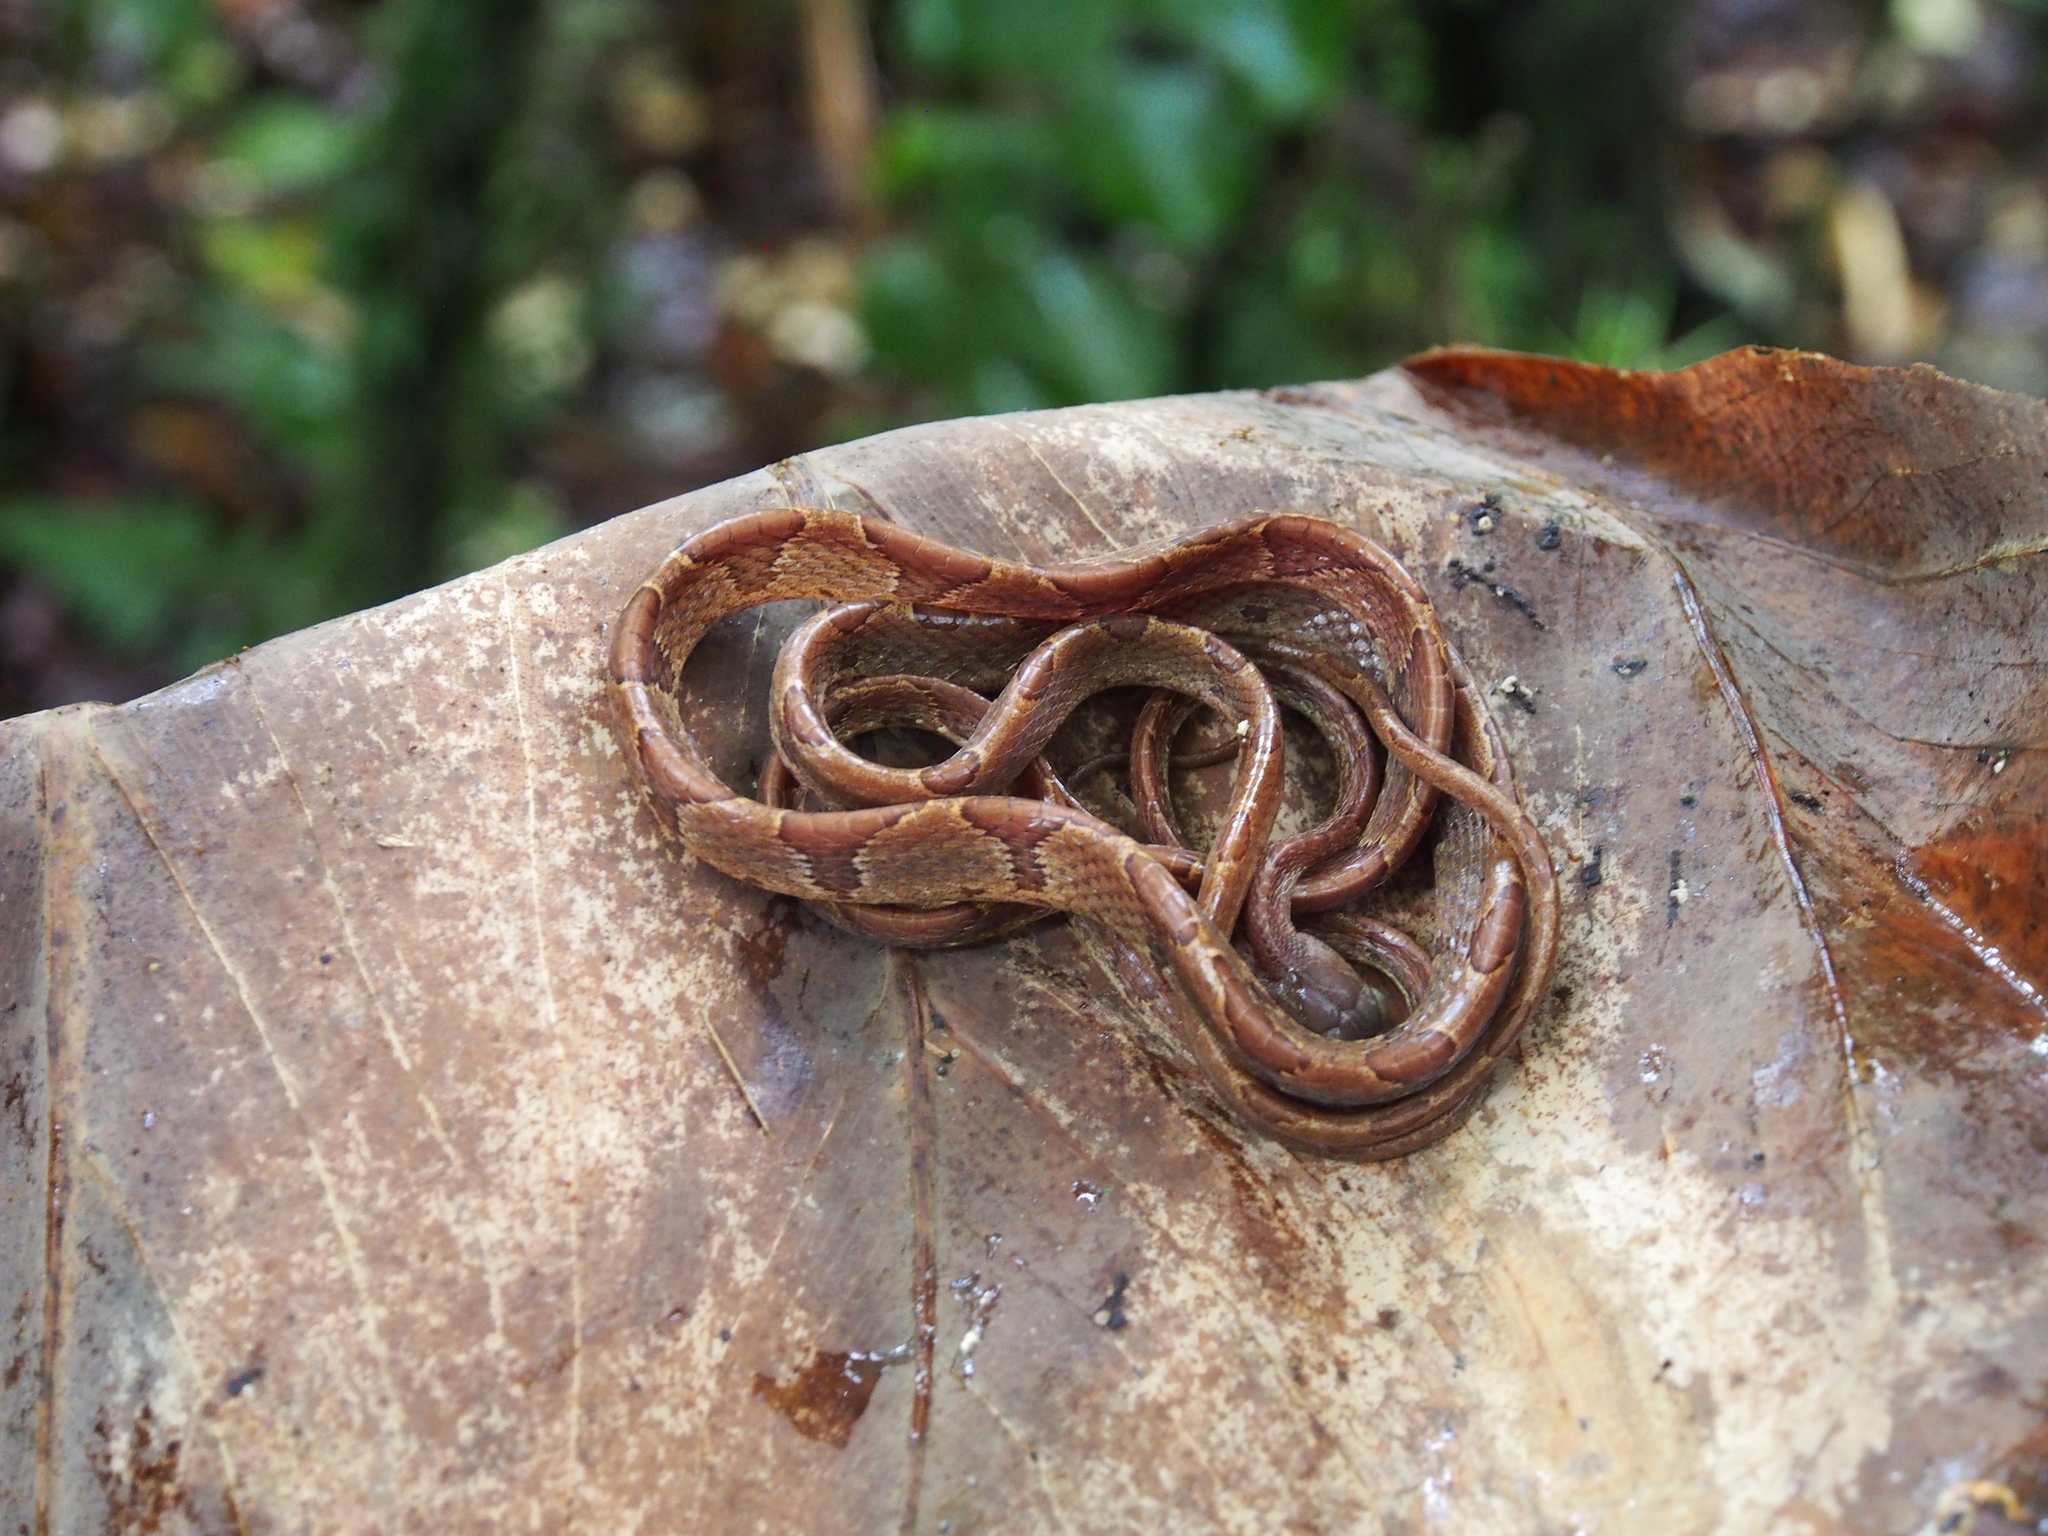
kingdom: Animalia
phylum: Chordata
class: Squamata
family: Colubridae
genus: Imantodes
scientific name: Imantodes cenchoa
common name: Blunthead tree snake
